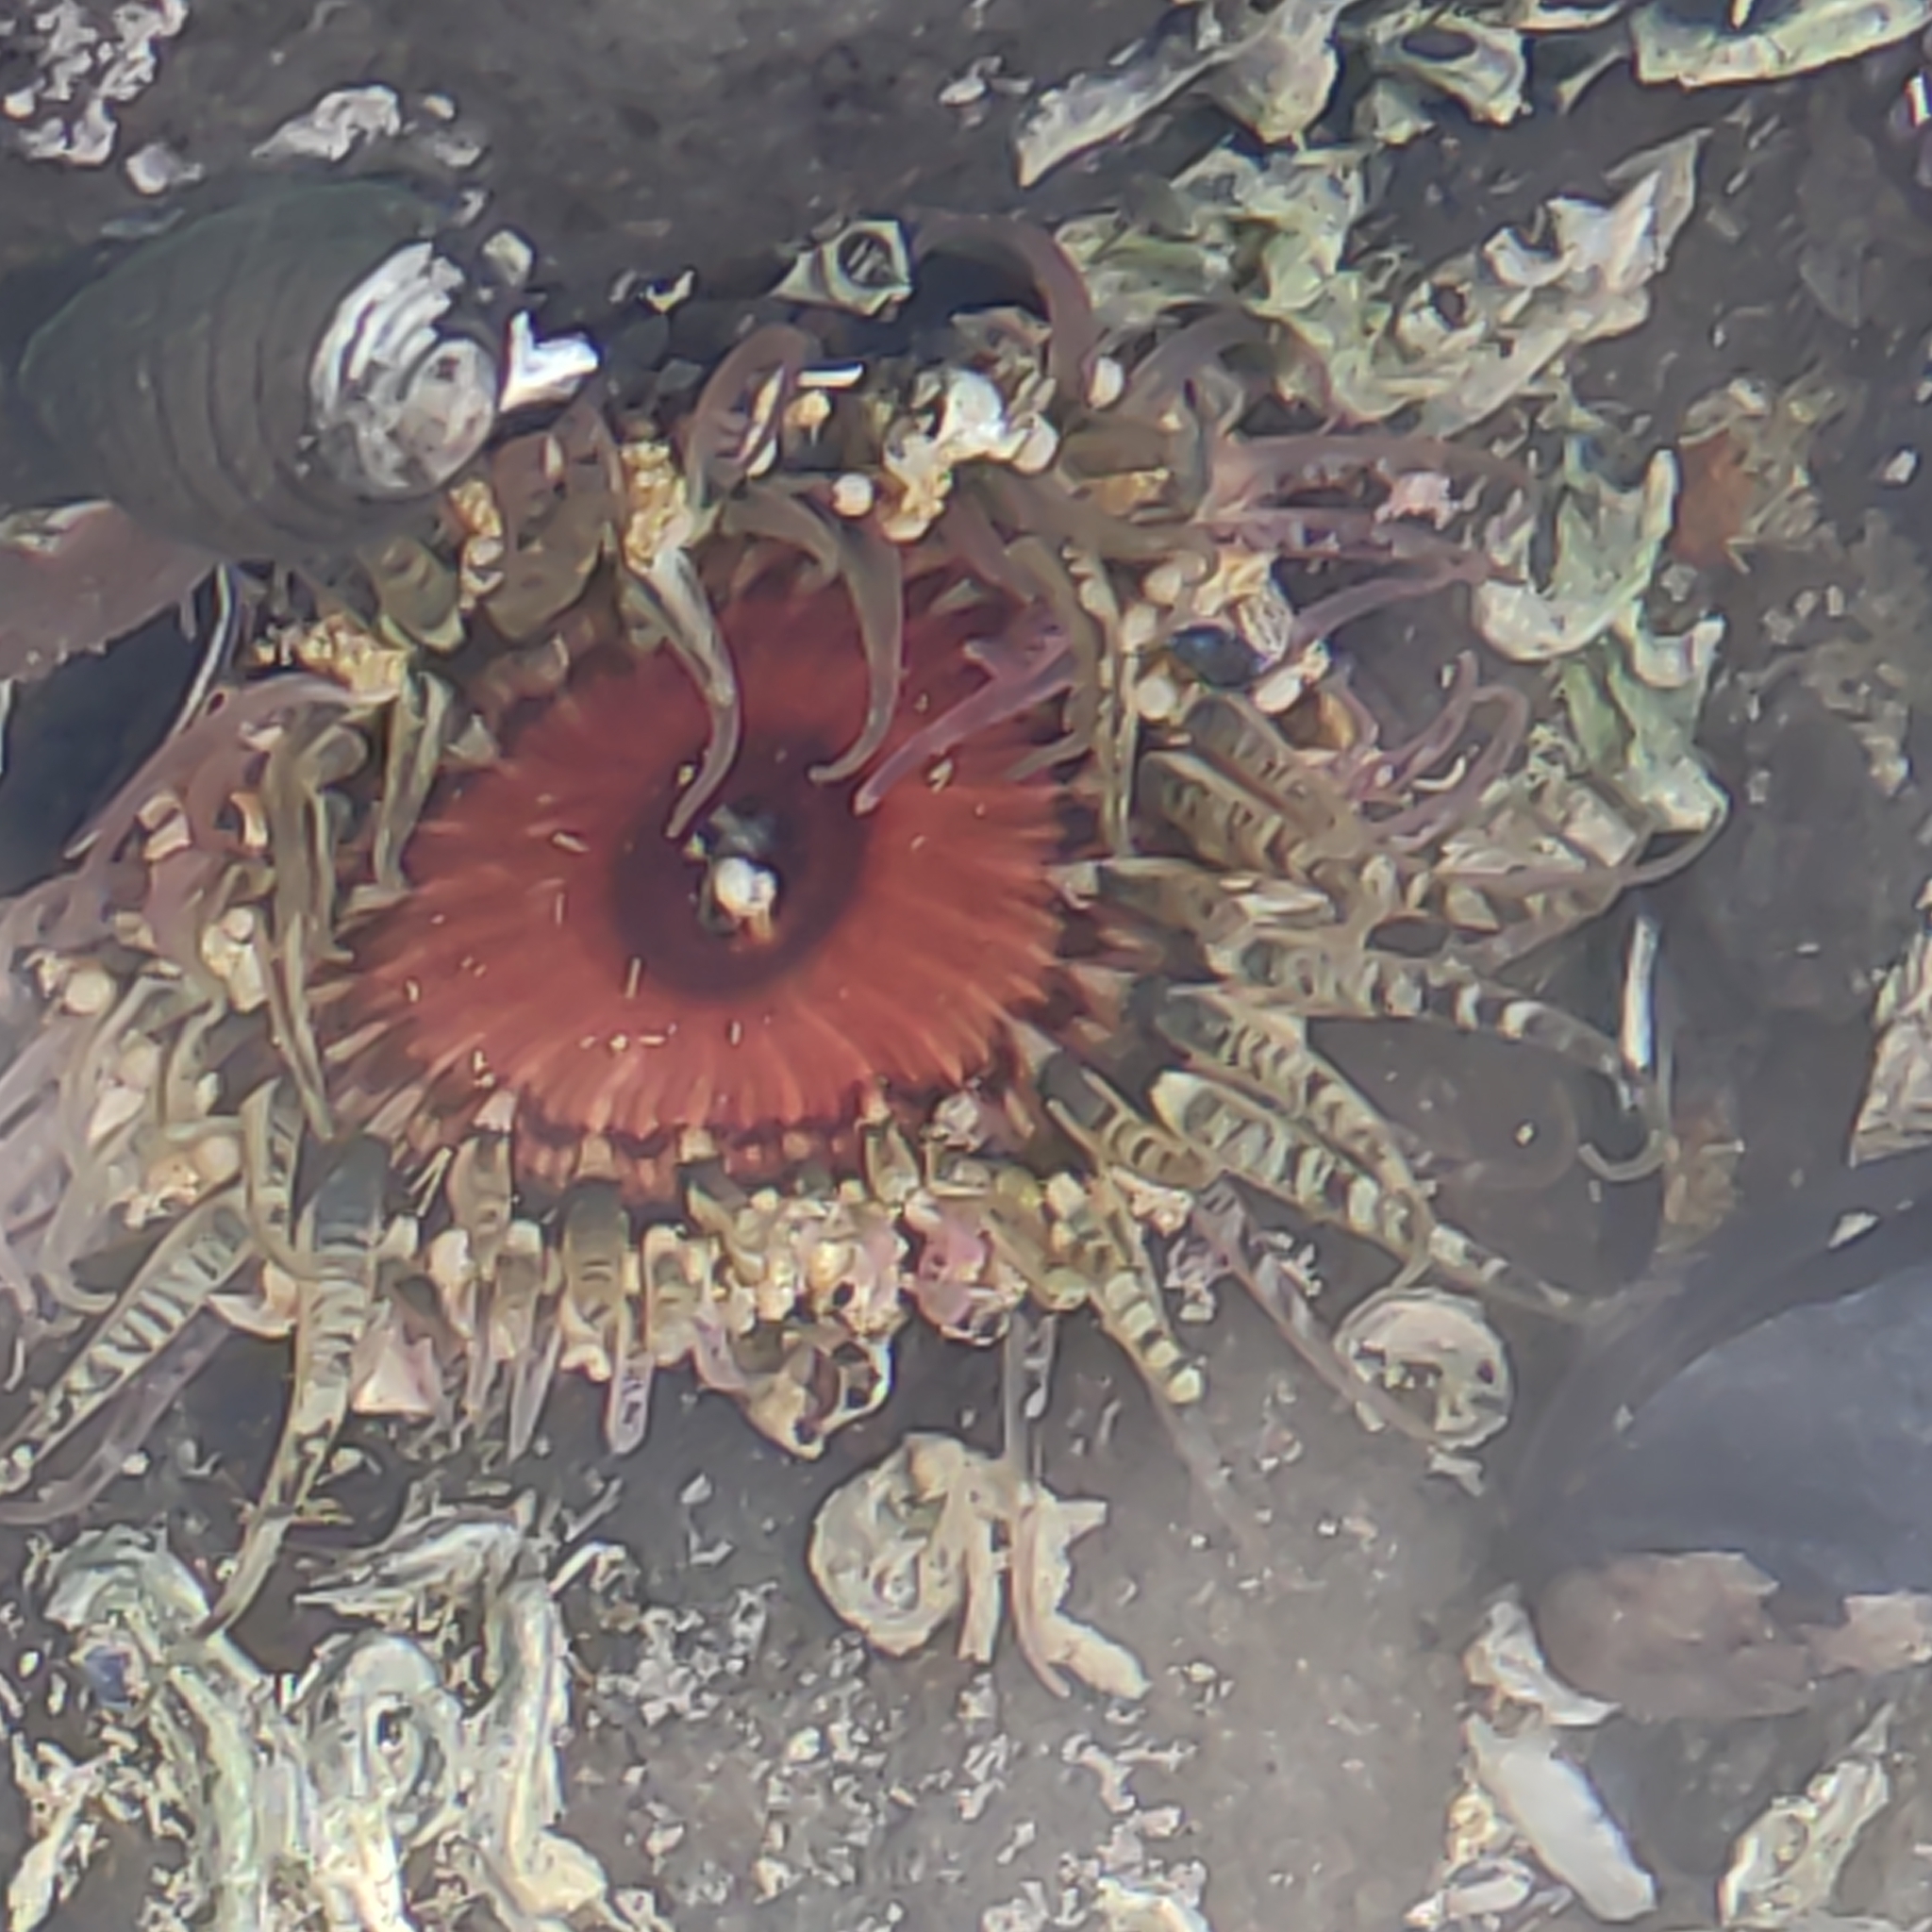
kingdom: Animalia
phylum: Cnidaria
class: Anthozoa
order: Actiniaria
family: Actiniidae
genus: Oulactis
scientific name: Oulactis muscosa
